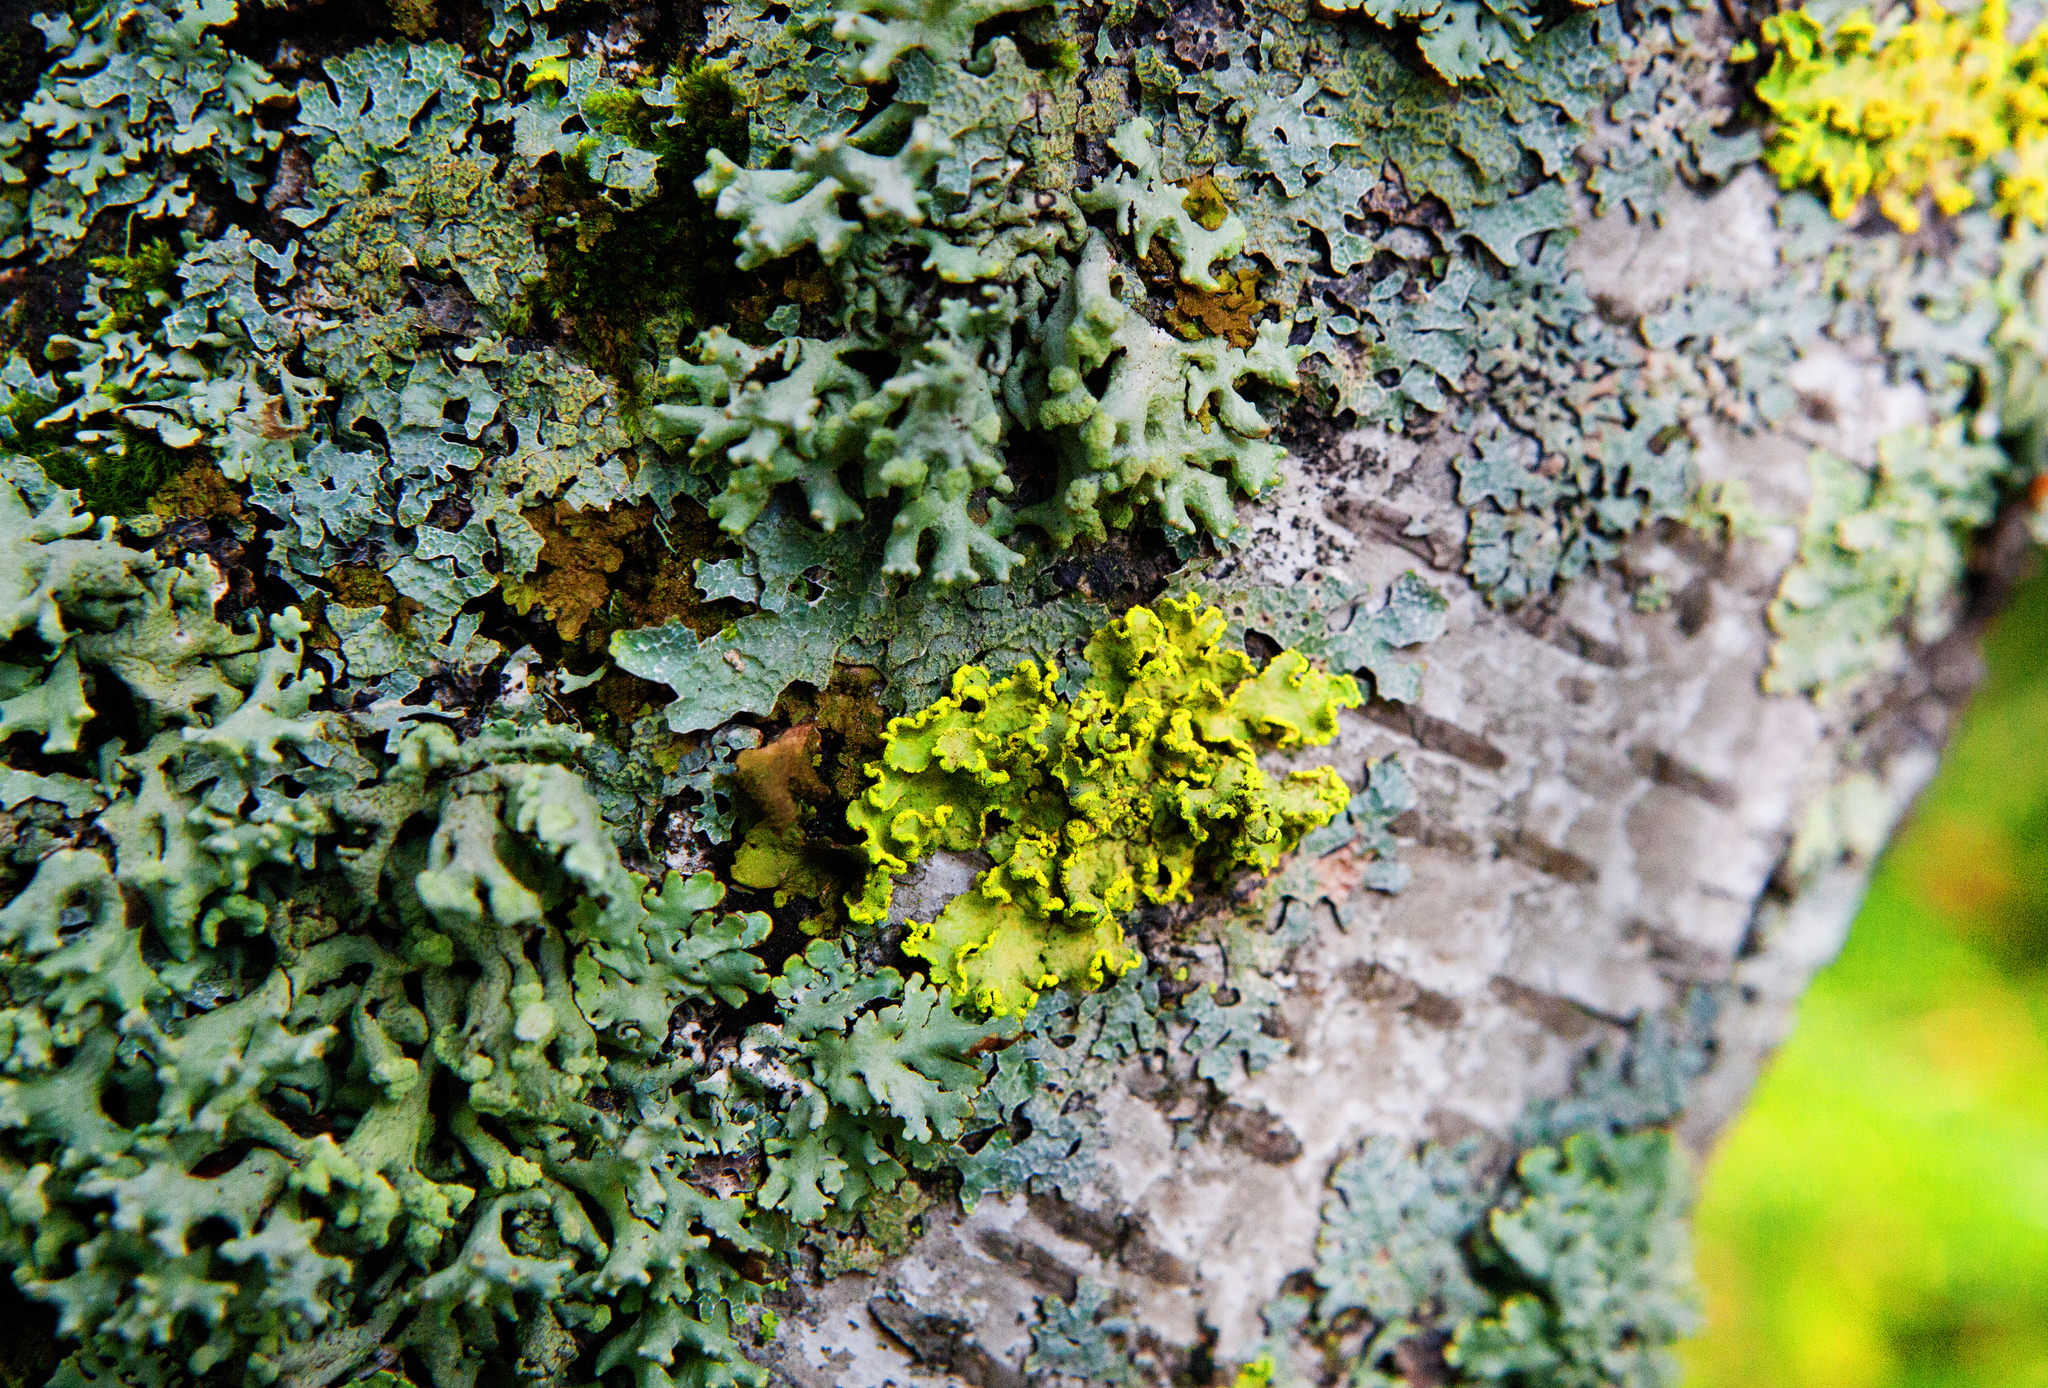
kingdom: Fungi
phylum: Ascomycota
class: Lecanoromycetes
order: Lecanorales
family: Parmeliaceae
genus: Vulpicida
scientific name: Vulpicida pinastri
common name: Powdered sunshine lichen
